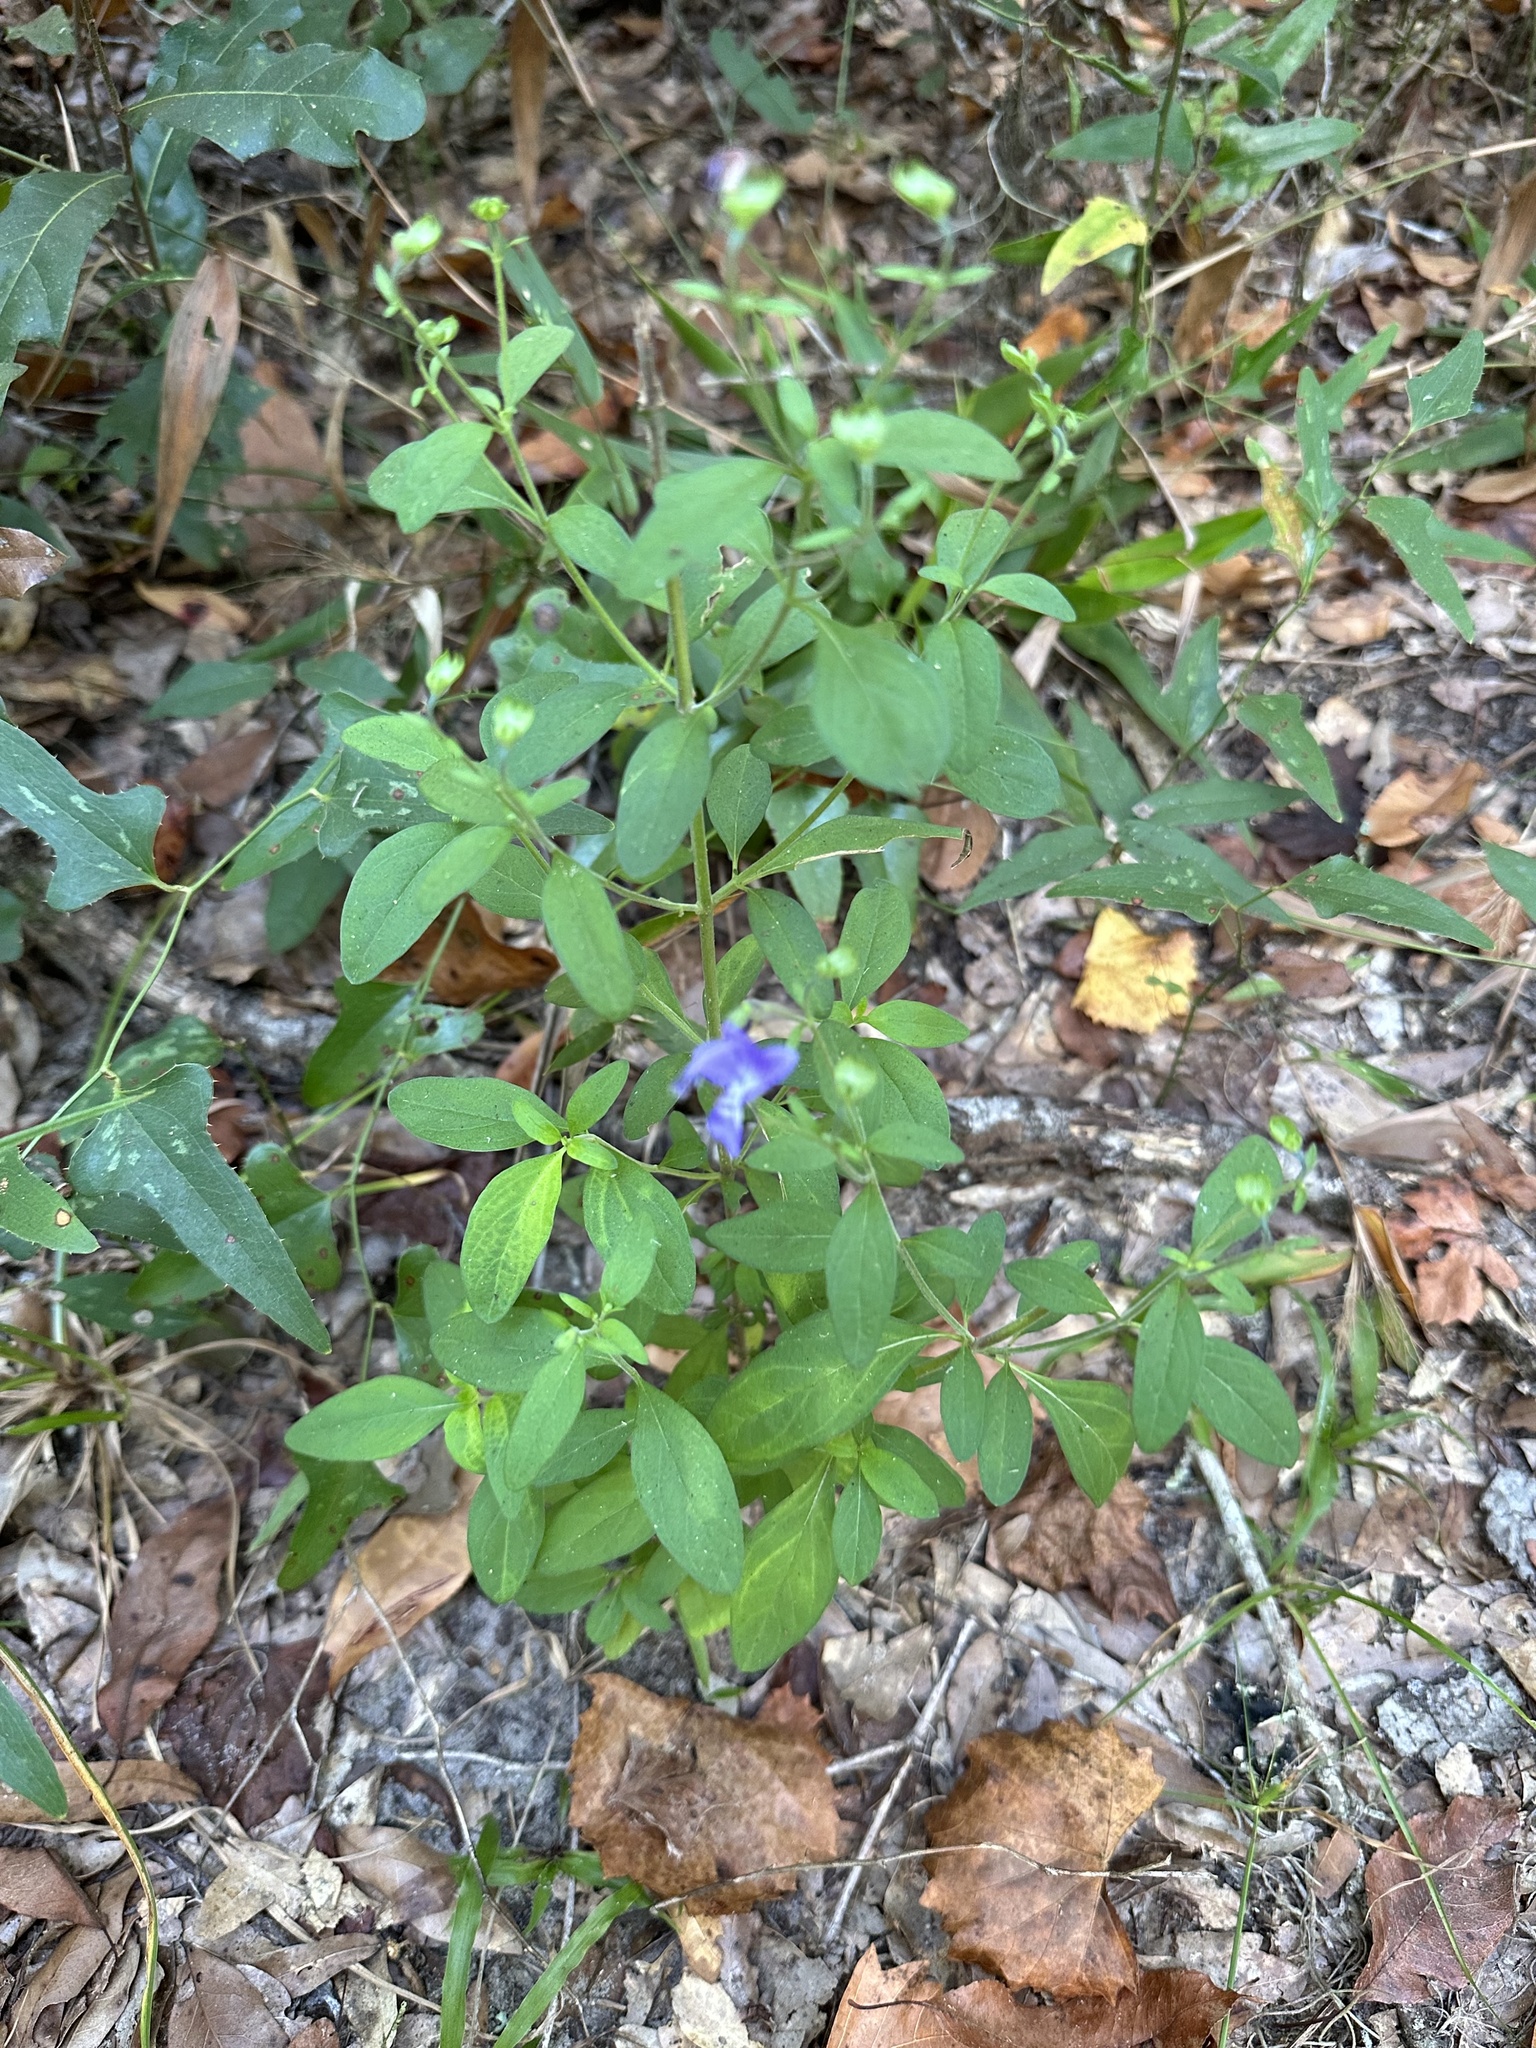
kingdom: Plantae
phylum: Tracheophyta
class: Magnoliopsida
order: Lamiales
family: Lamiaceae
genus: Trichostema
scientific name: Trichostema fruticosum
